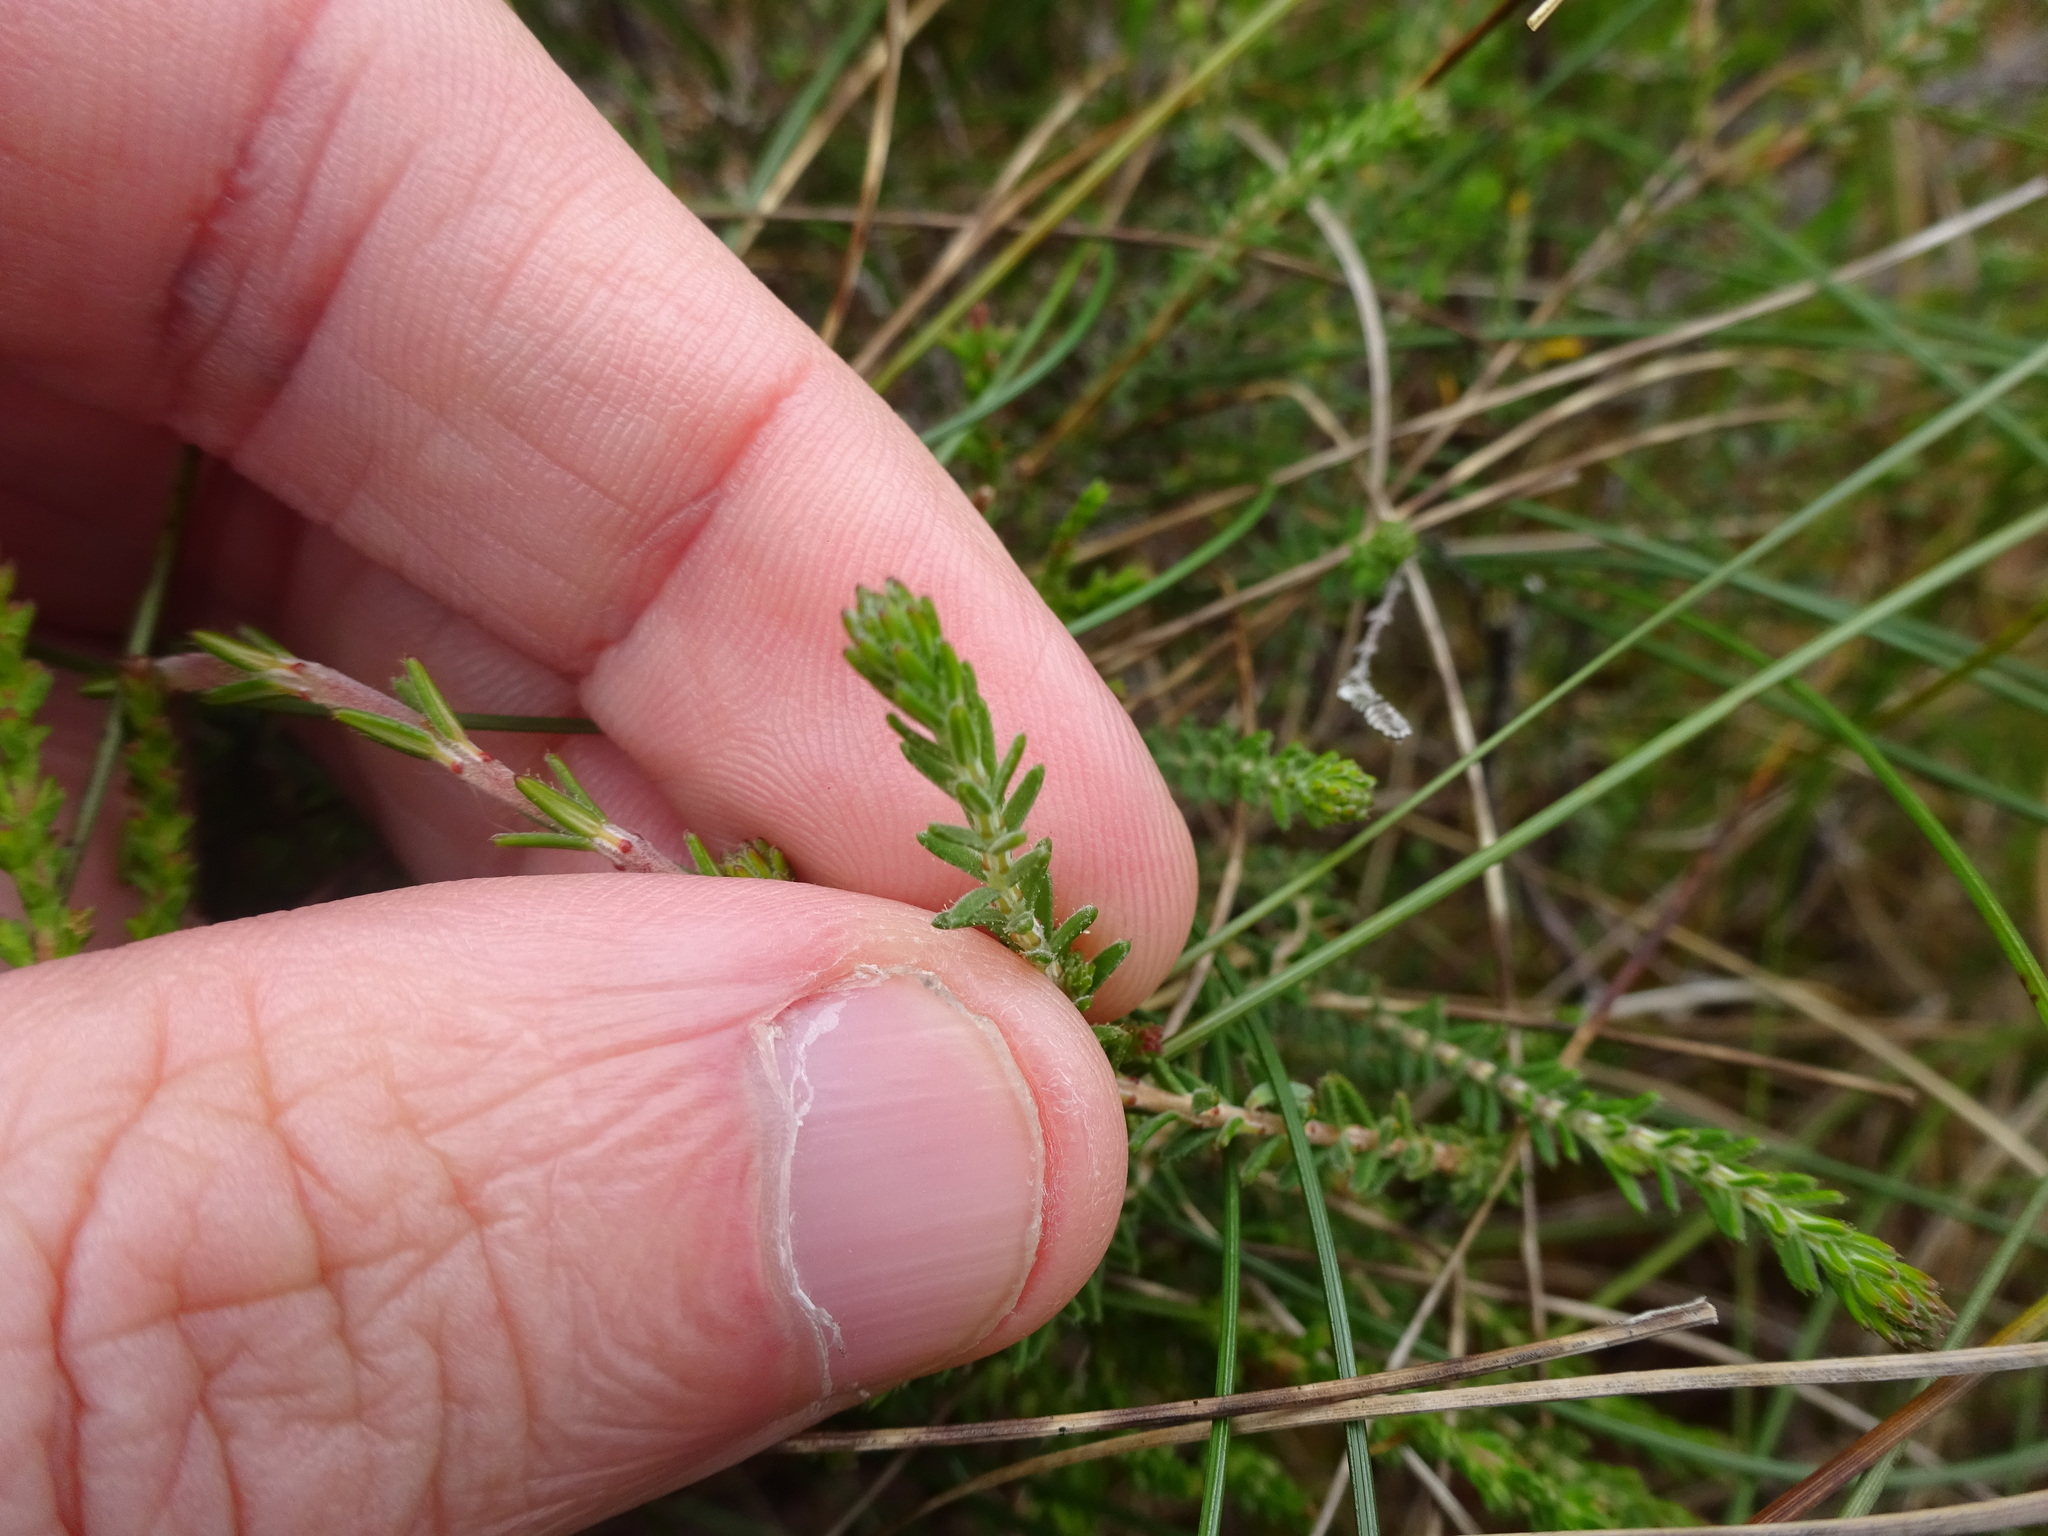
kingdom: Plantae
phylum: Tracheophyta
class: Magnoliopsida
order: Ericales
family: Ericaceae
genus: Erica
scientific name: Erica tetralix
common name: Cross-leaved heath
